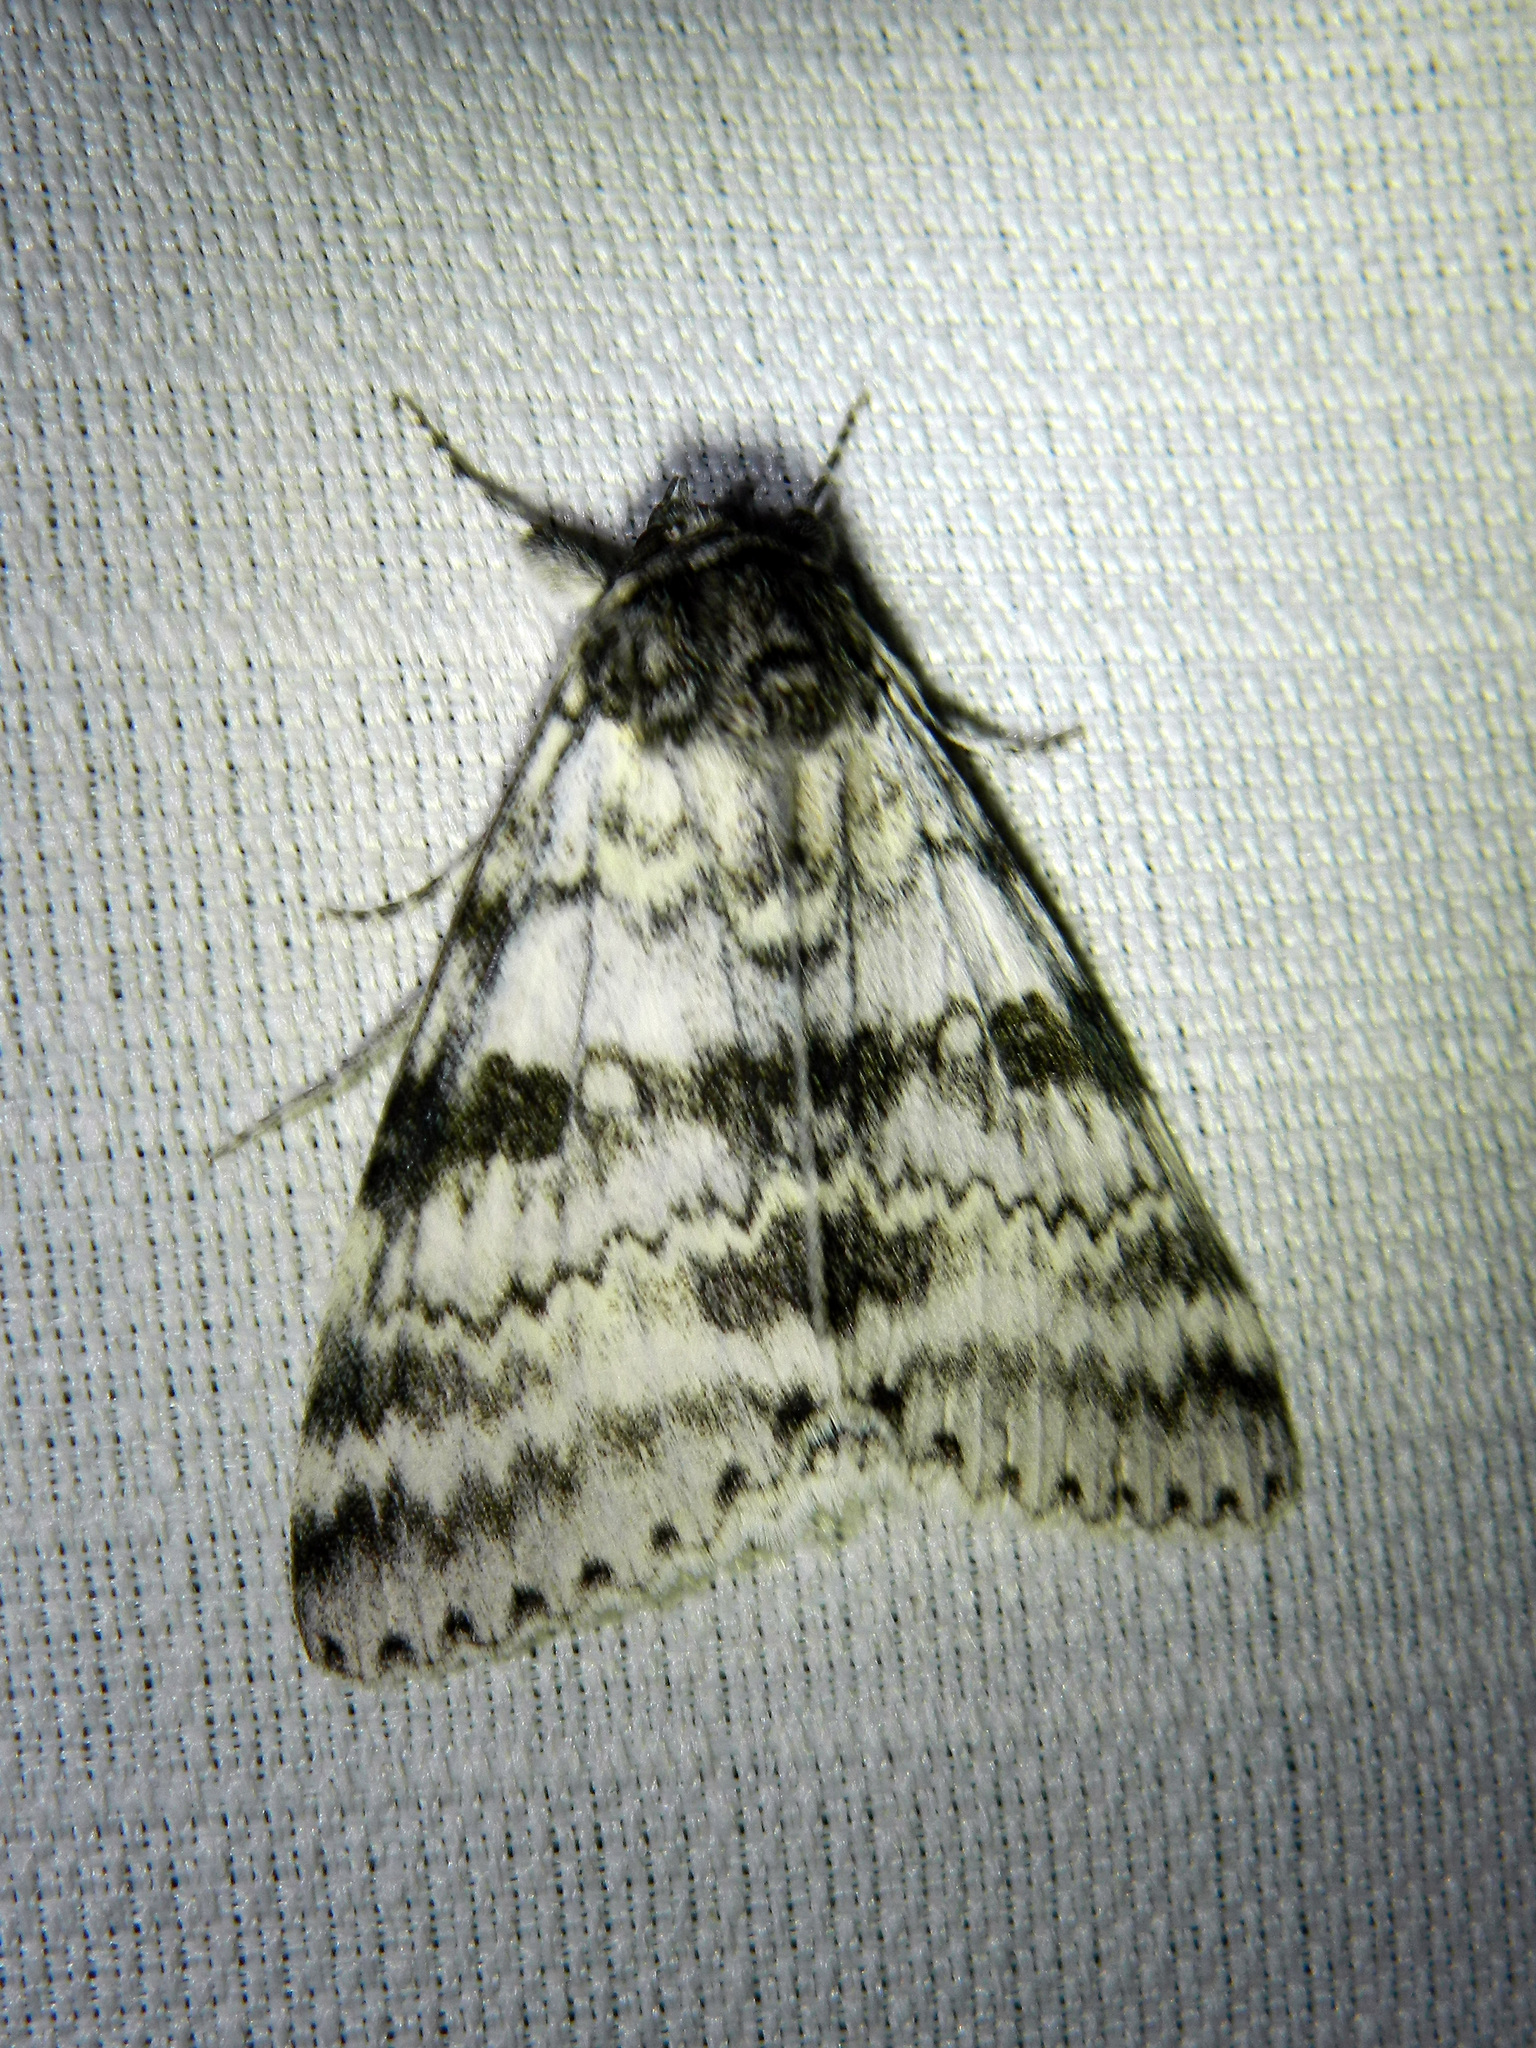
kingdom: Animalia
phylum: Arthropoda
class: Insecta
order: Lepidoptera
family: Erebidae
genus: Catocala
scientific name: Catocala relicta
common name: White underwing
